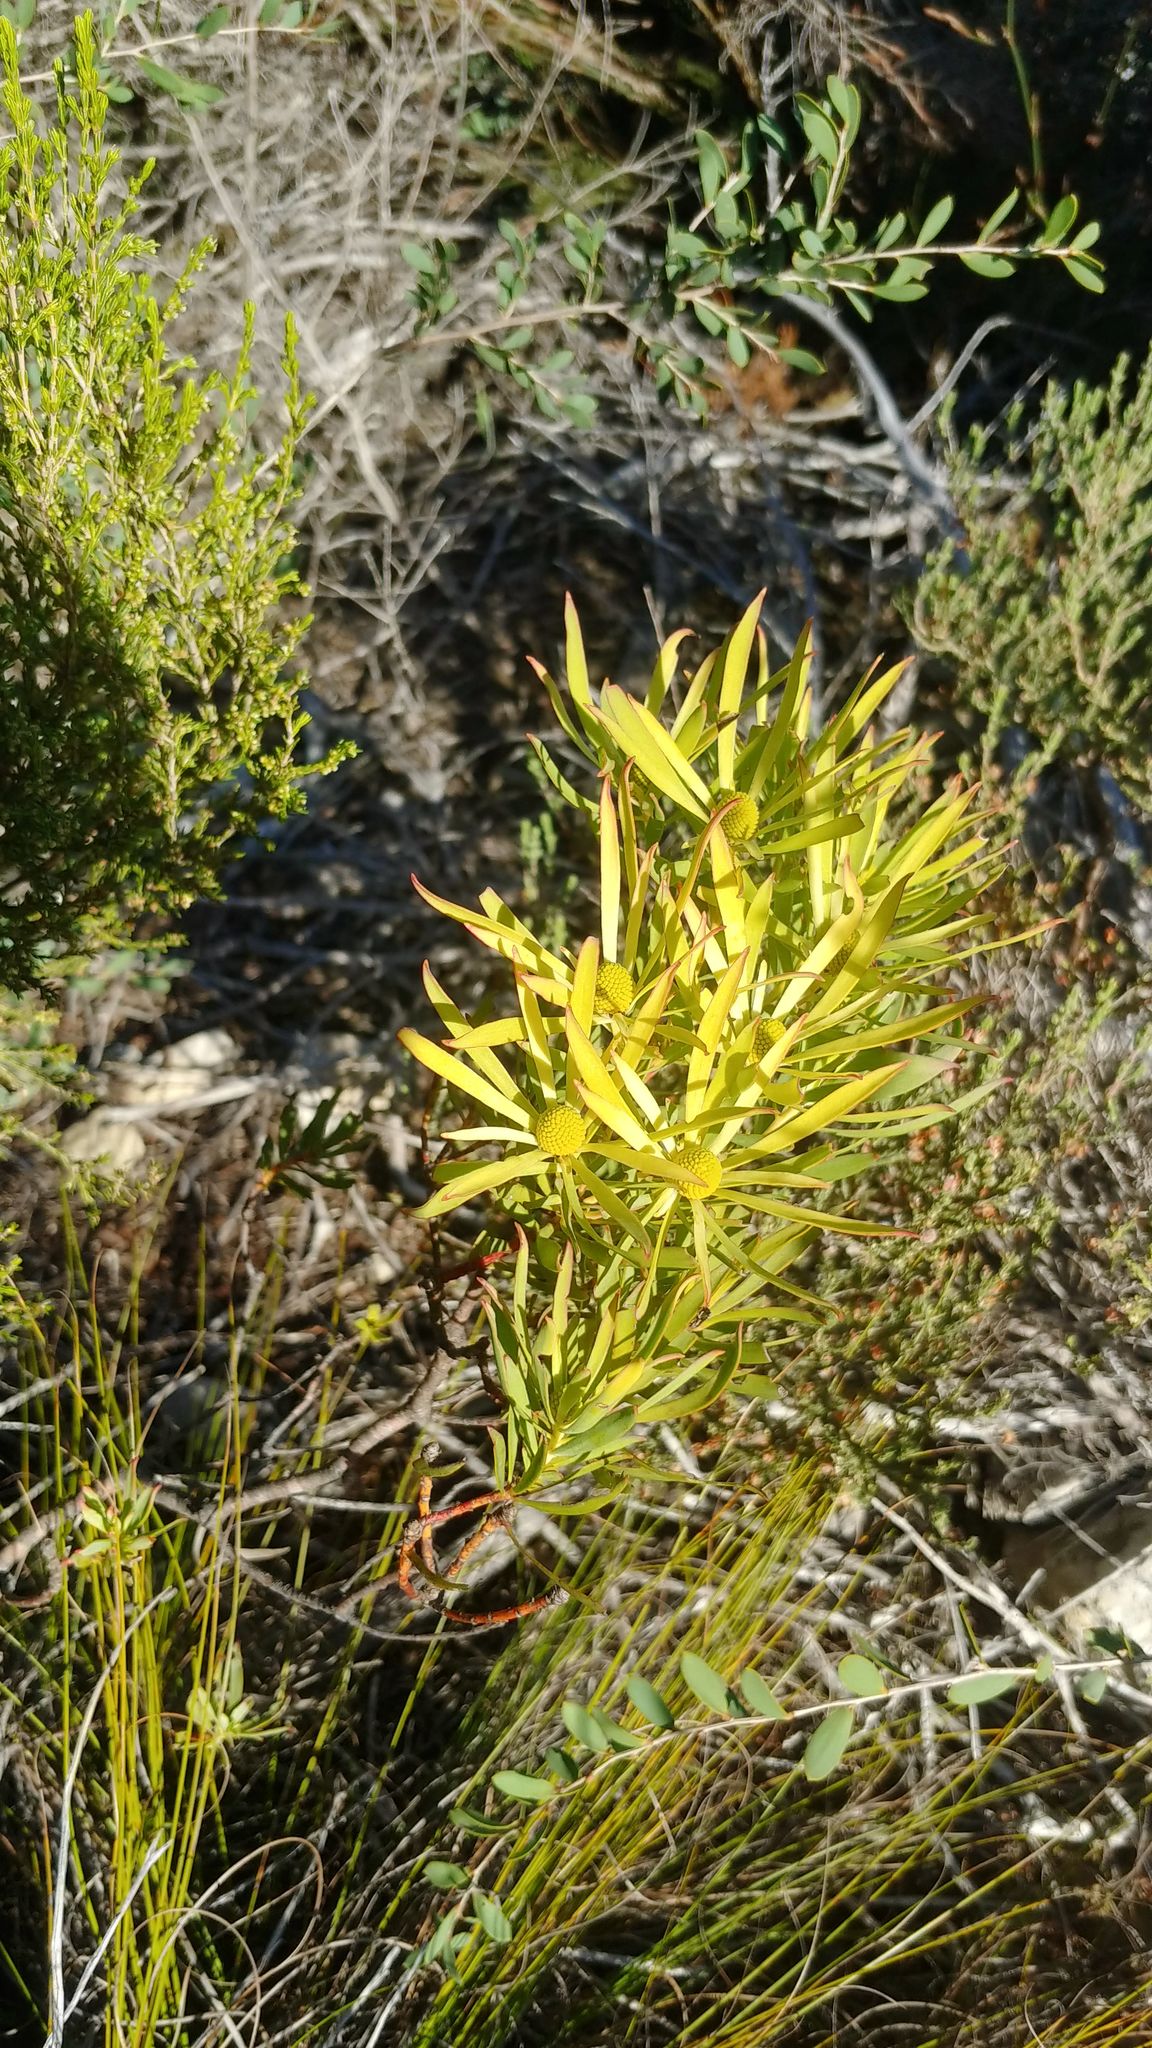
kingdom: Plantae
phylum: Tracheophyta
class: Magnoliopsida
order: Proteales
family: Proteaceae
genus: Leucadendron
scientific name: Leucadendron salignum
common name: Common sunshine conebush
